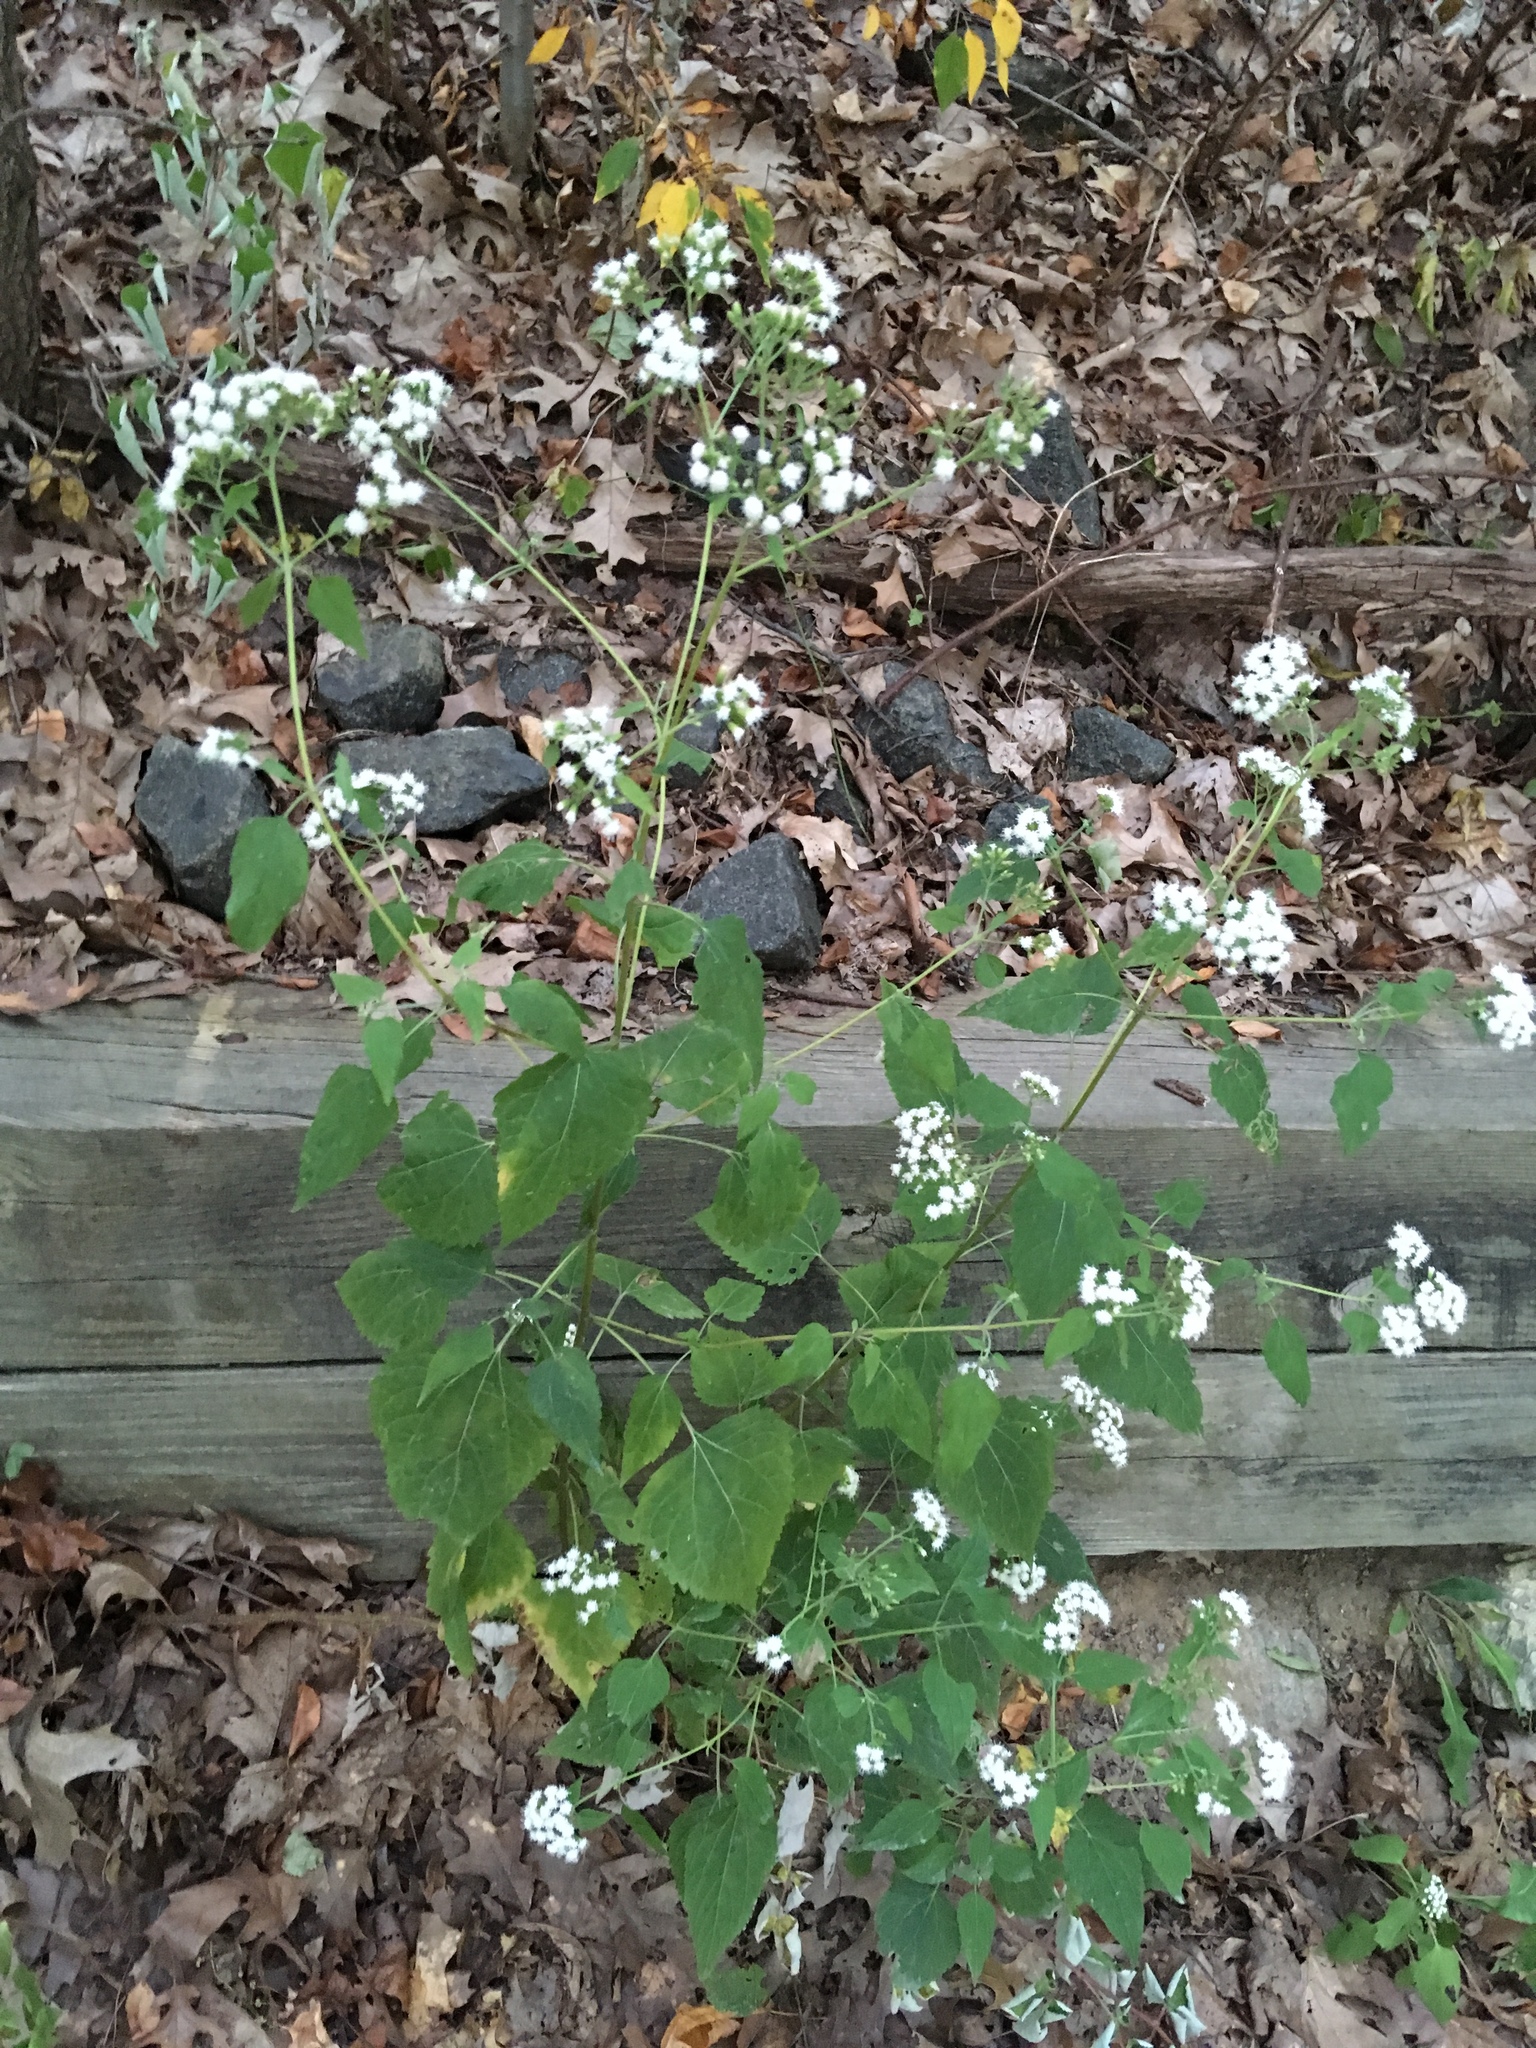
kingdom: Plantae
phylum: Tracheophyta
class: Magnoliopsida
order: Asterales
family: Asteraceae
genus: Ageratina
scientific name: Ageratina altissima
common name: White snakeroot
